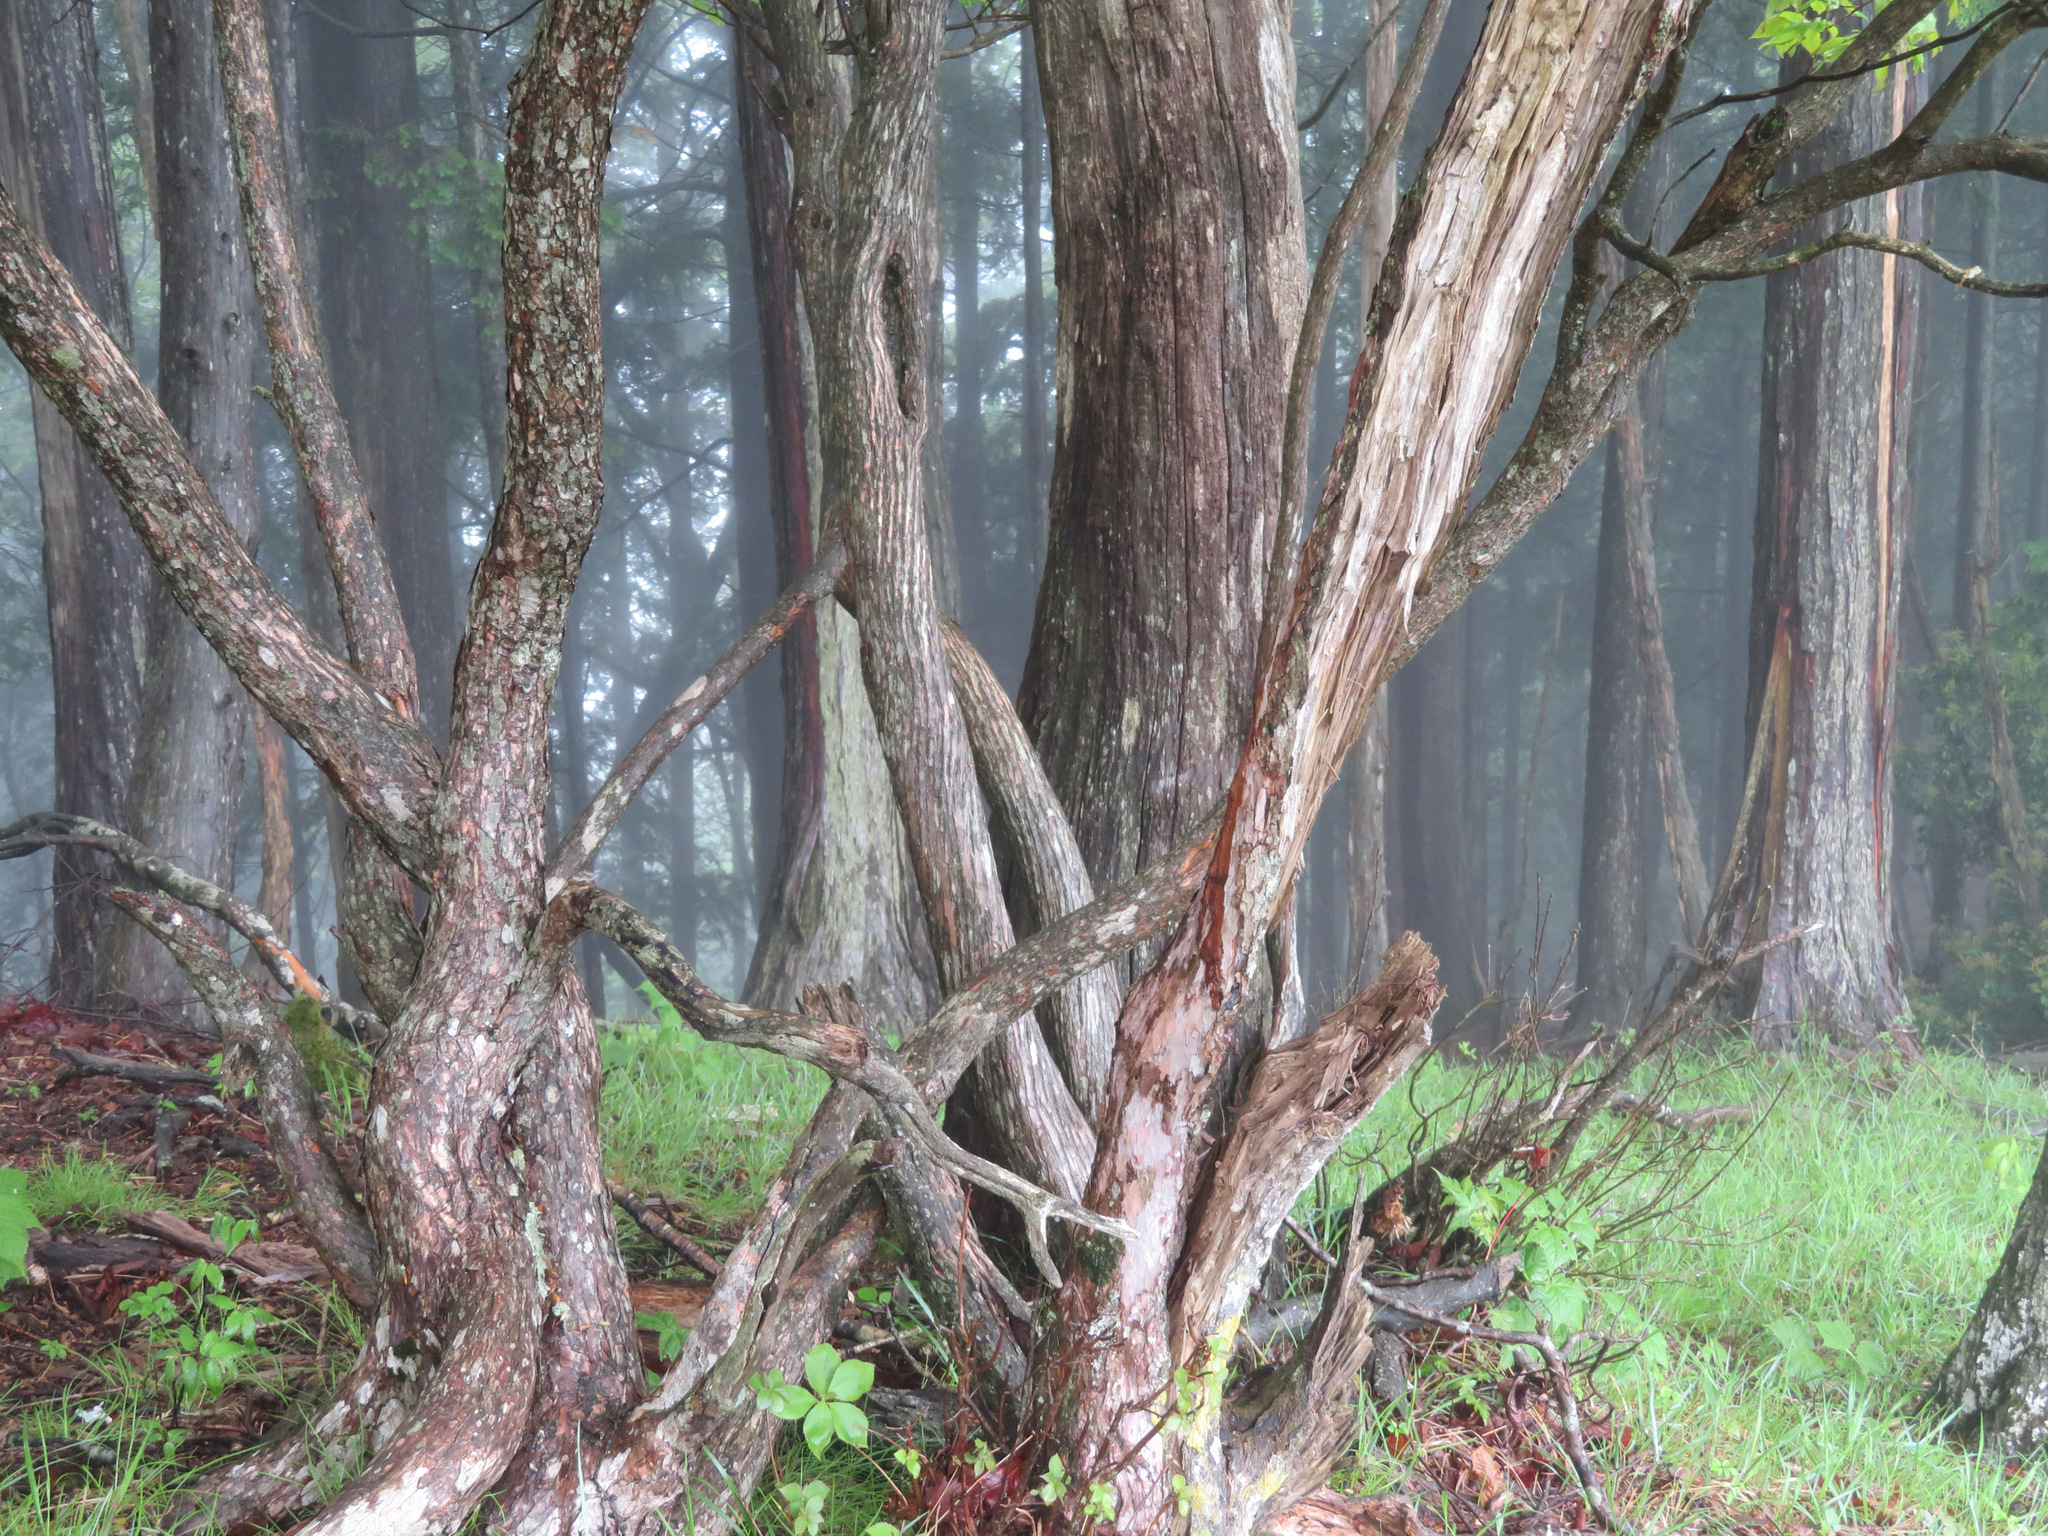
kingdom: Plantae
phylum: Tracheophyta
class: Magnoliopsida
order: Ericales
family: Ericaceae
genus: Rhododendron
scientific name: Rhododendron quinquefolium
